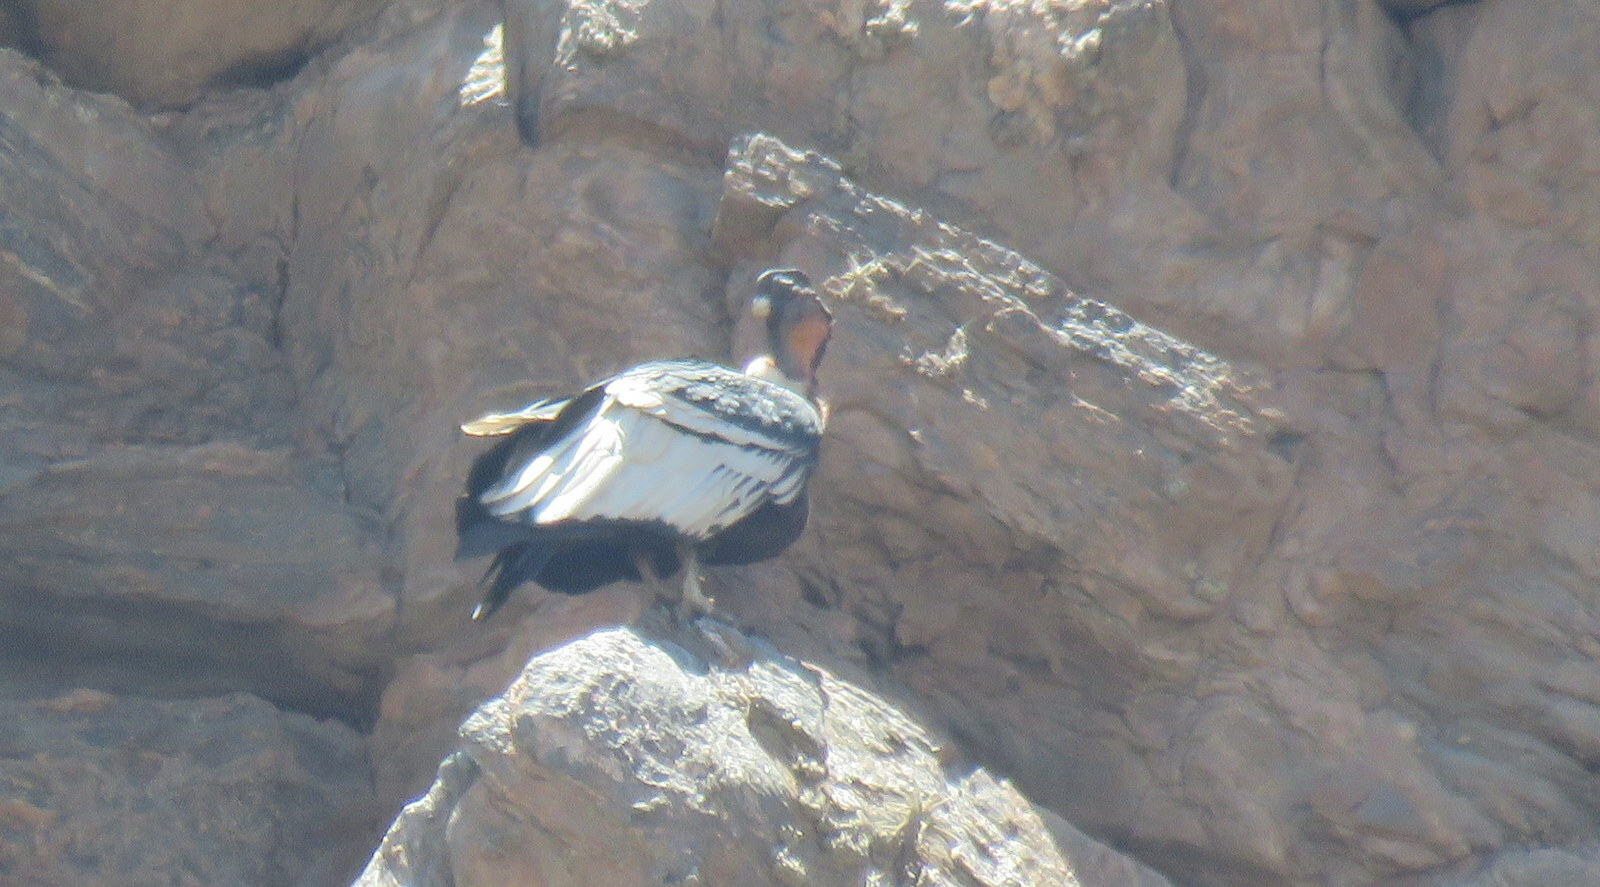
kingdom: Animalia
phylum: Chordata
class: Aves
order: Accipitriformes
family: Cathartidae
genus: Vultur
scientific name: Vultur gryphus
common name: Andean condor
